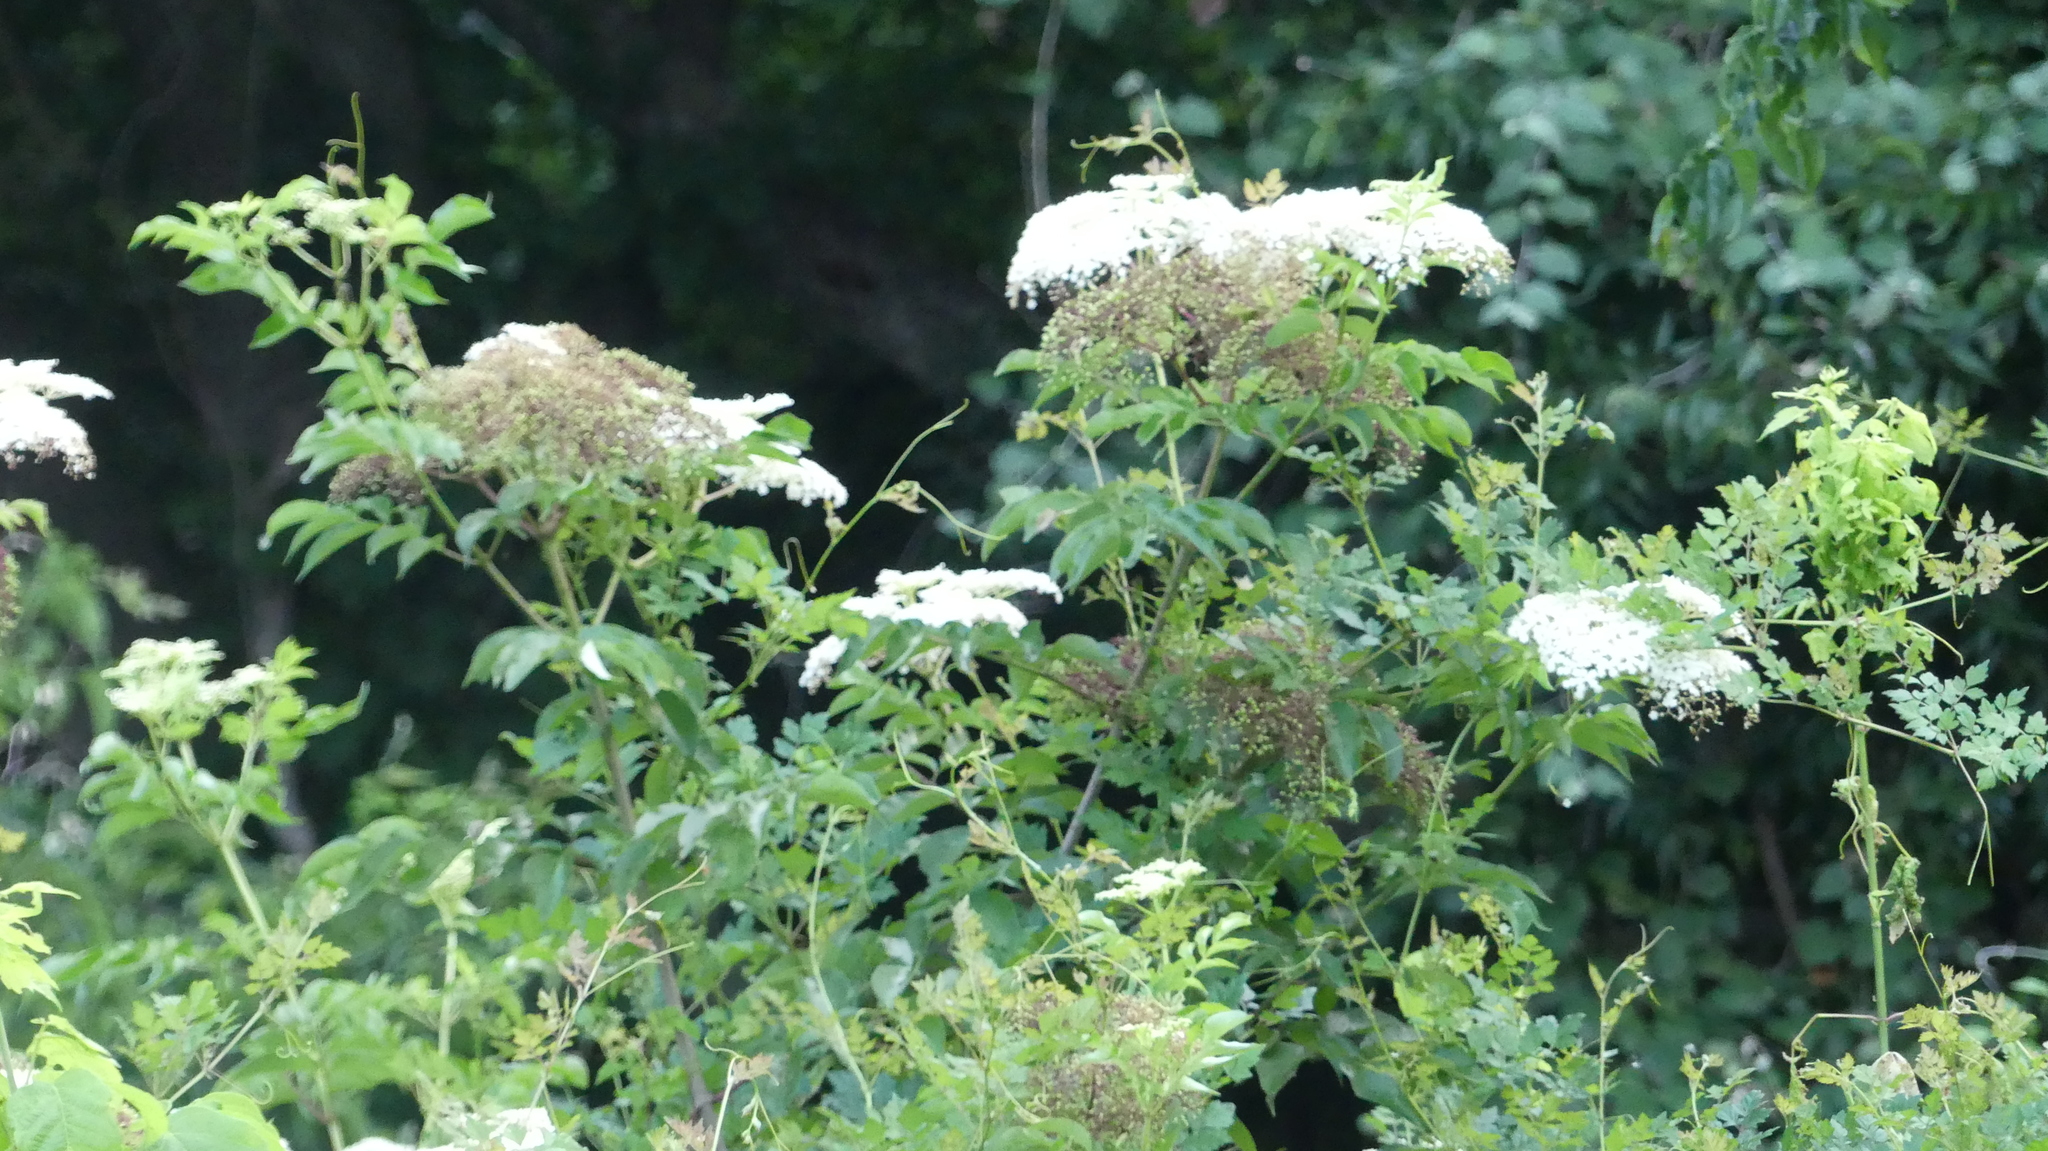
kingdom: Plantae
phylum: Tracheophyta
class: Magnoliopsida
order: Dipsacales
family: Viburnaceae
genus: Sambucus
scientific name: Sambucus canadensis
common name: American elder
